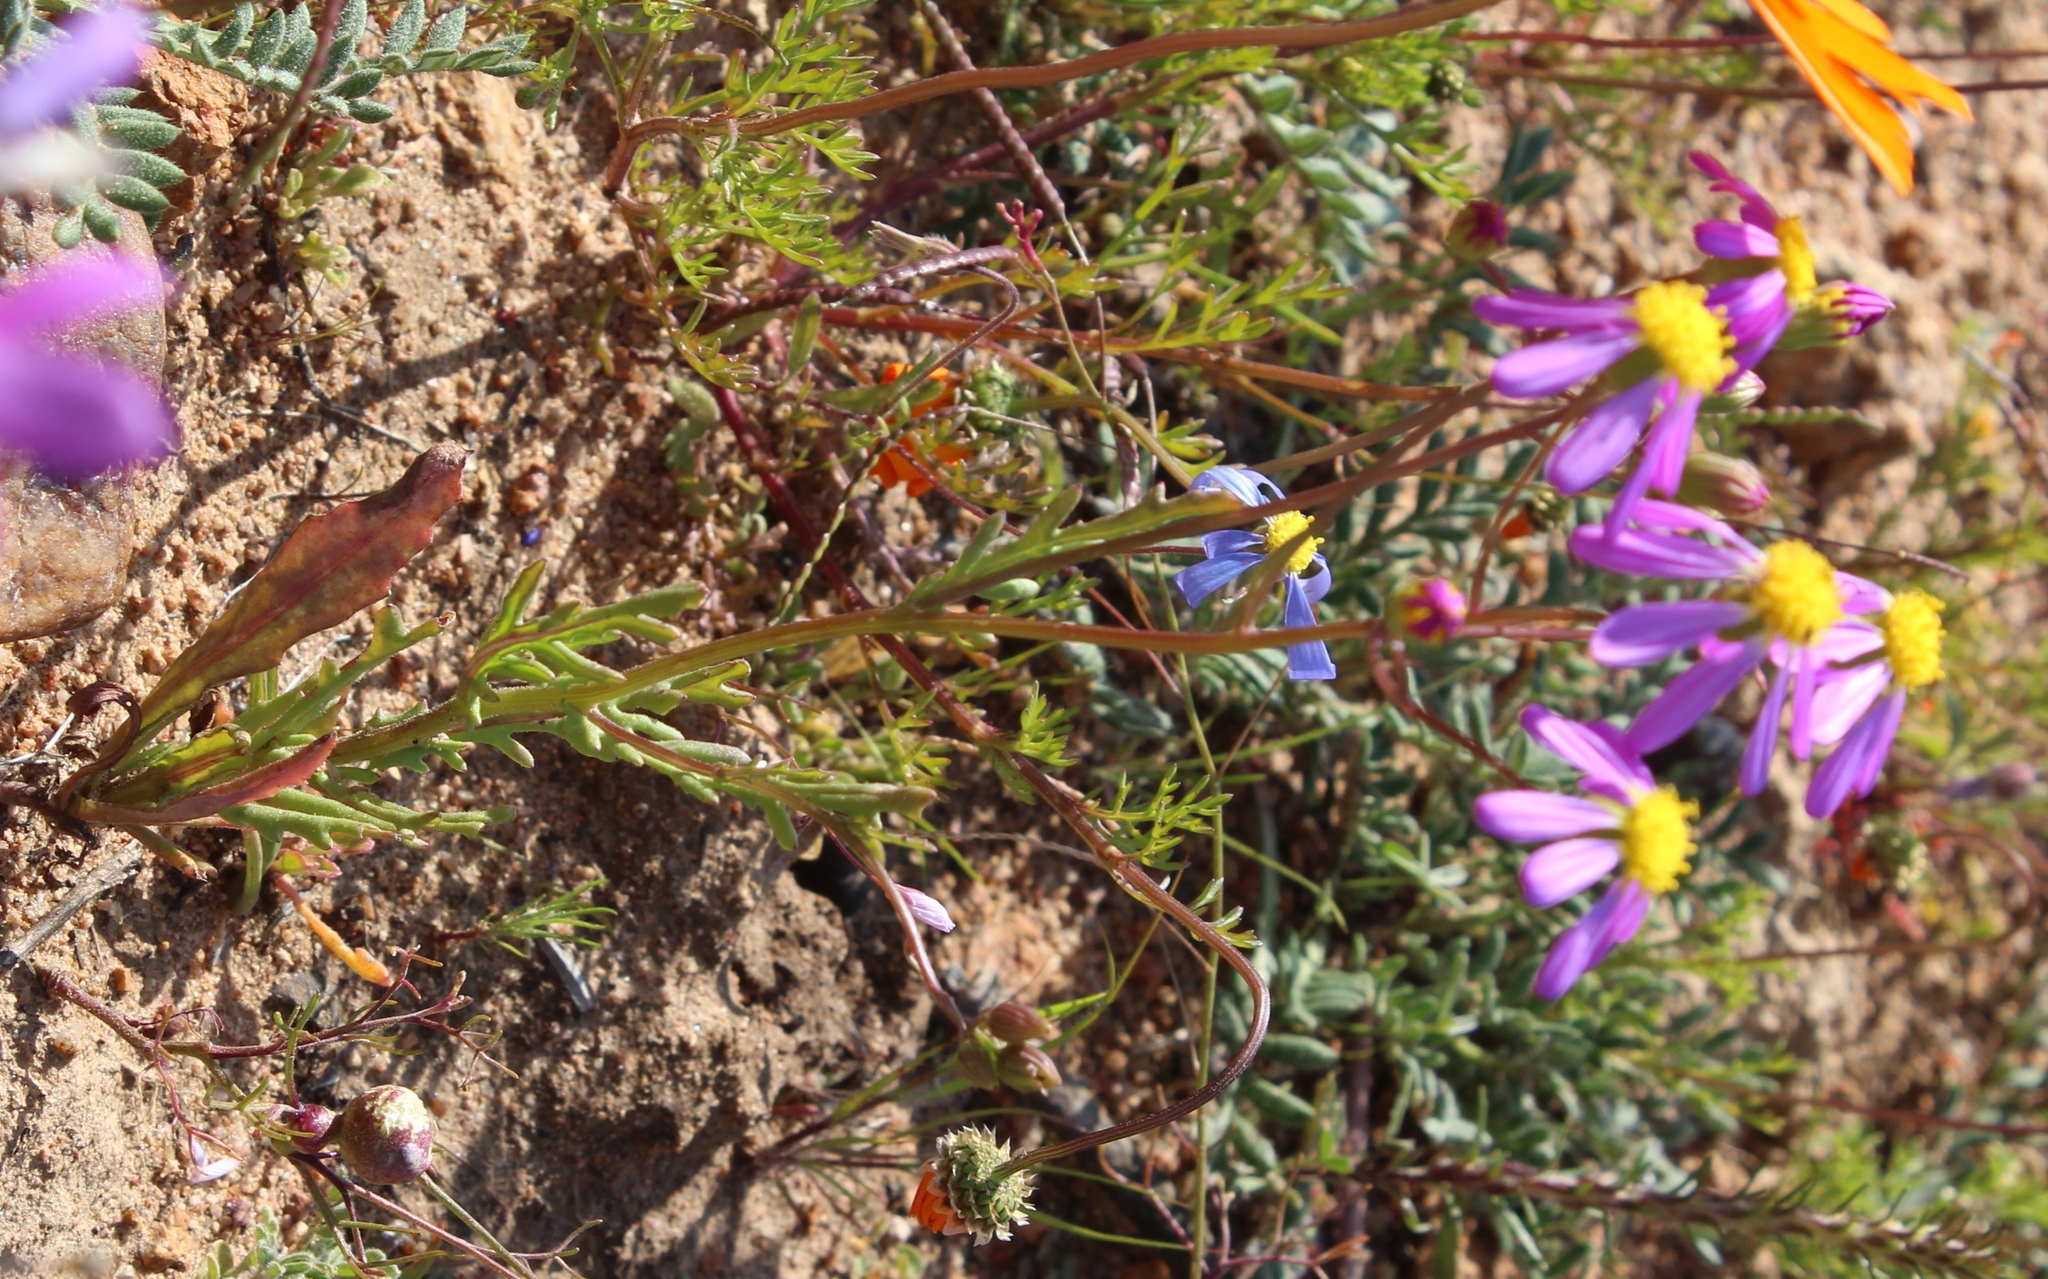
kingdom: Plantae
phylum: Tracheophyta
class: Magnoliopsida
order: Asterales
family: Asteraceae
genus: Senecio
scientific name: Senecio arenarius
